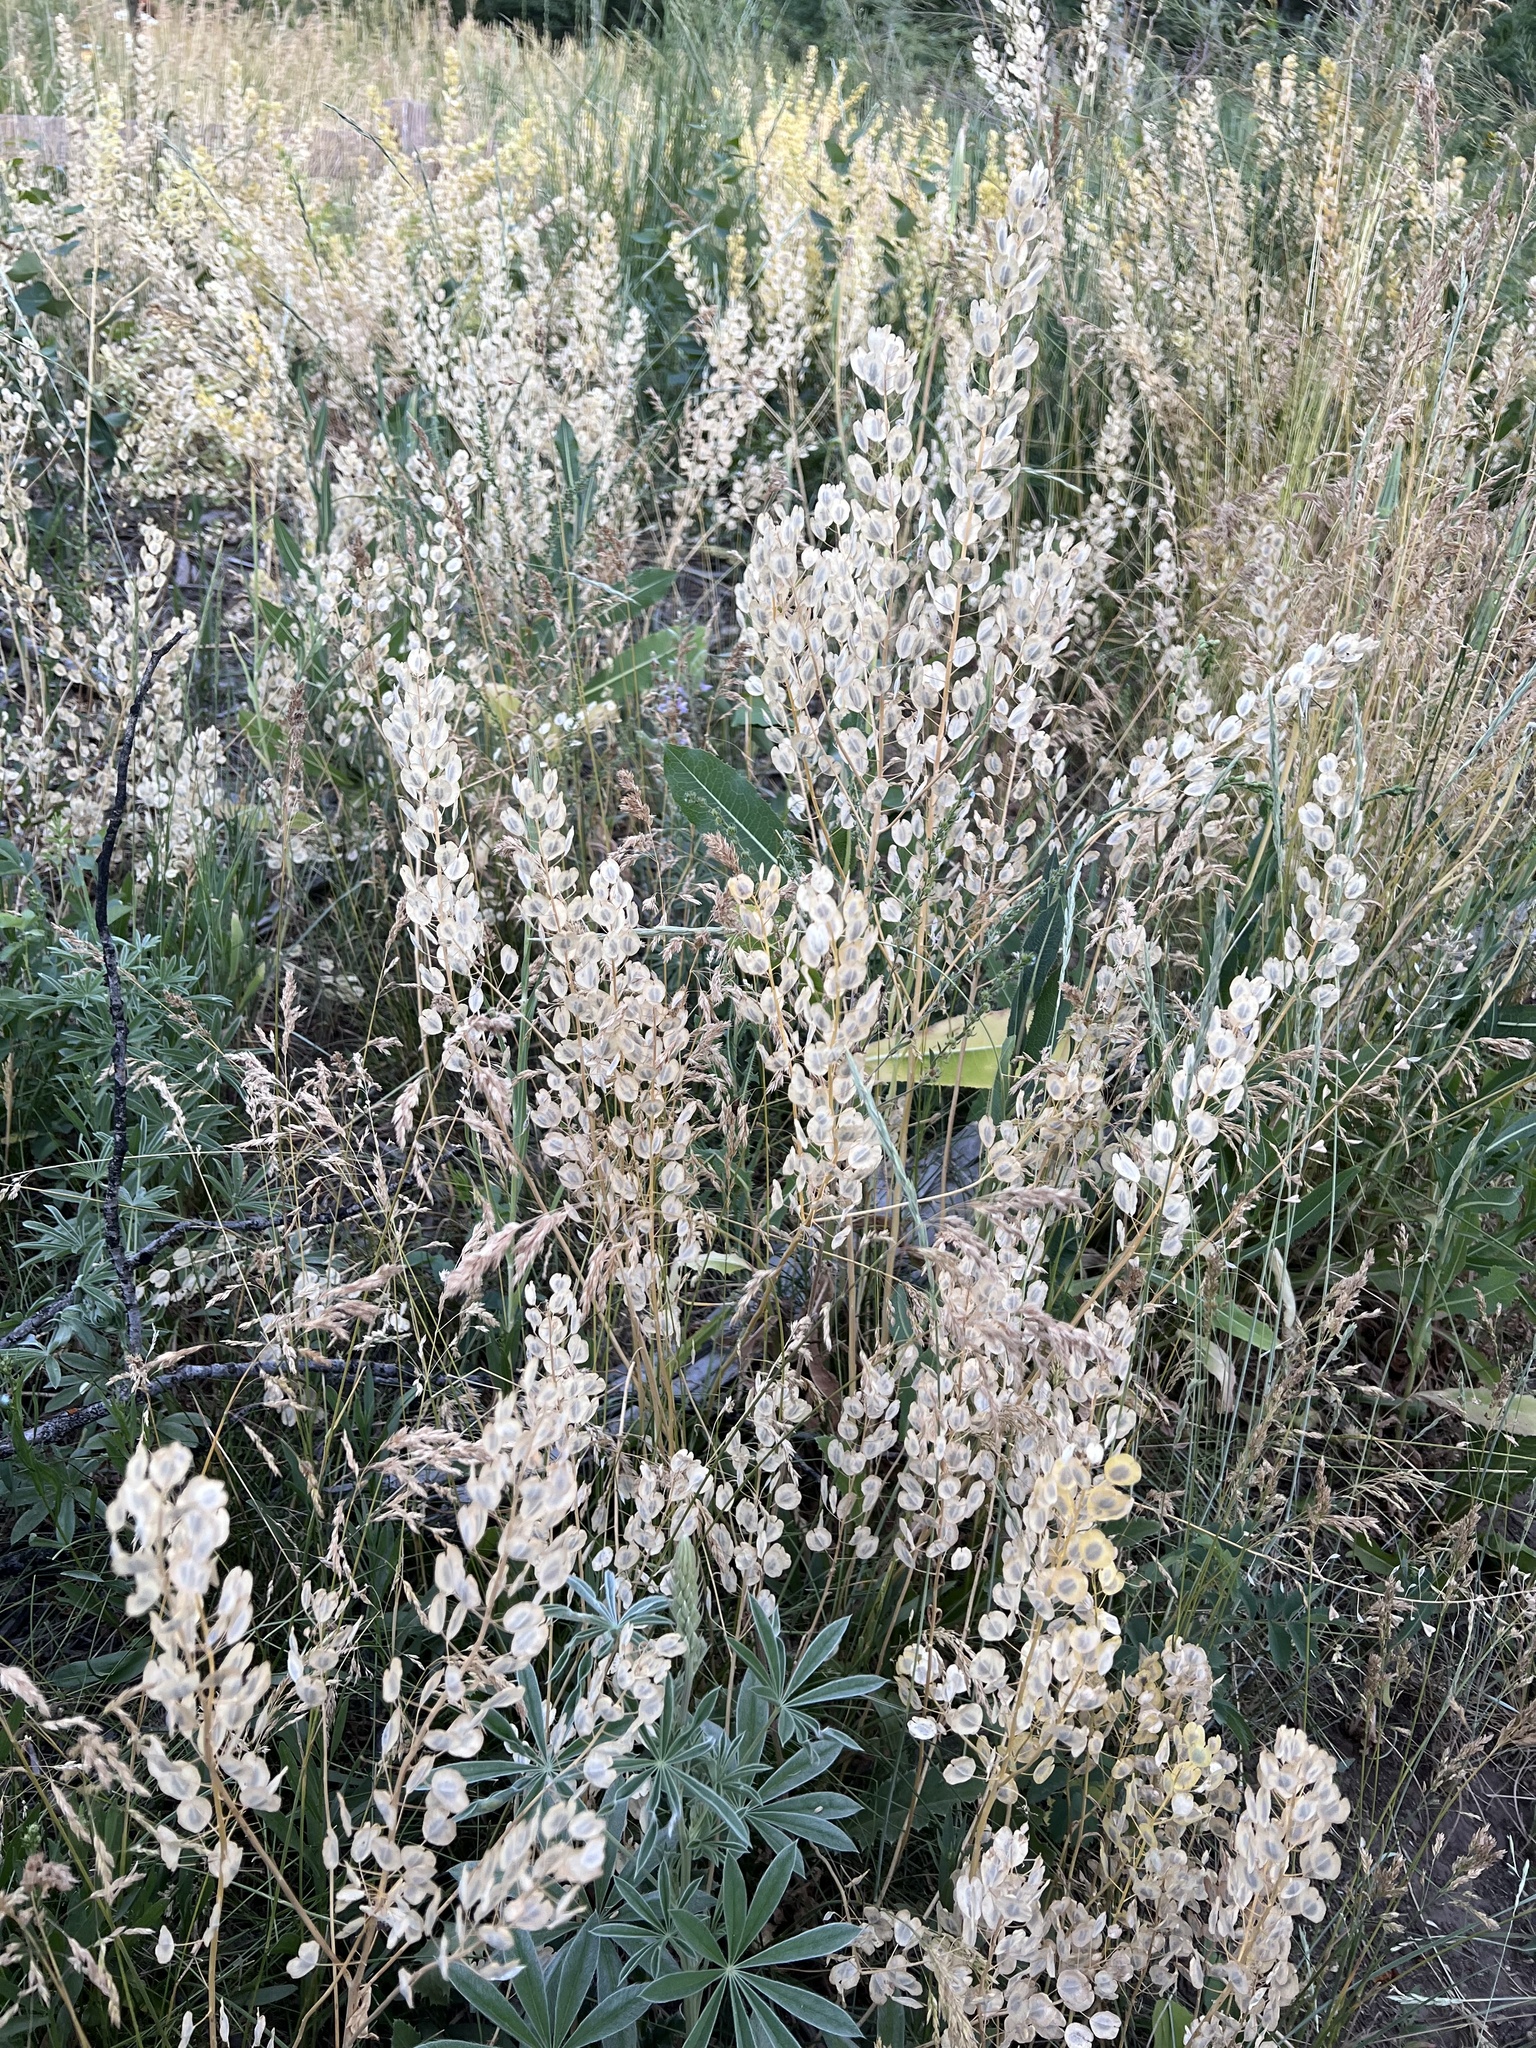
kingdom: Plantae
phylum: Tracheophyta
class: Magnoliopsida
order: Brassicales
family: Brassicaceae
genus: Thlaspi
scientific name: Thlaspi arvense
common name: Field pennycress
